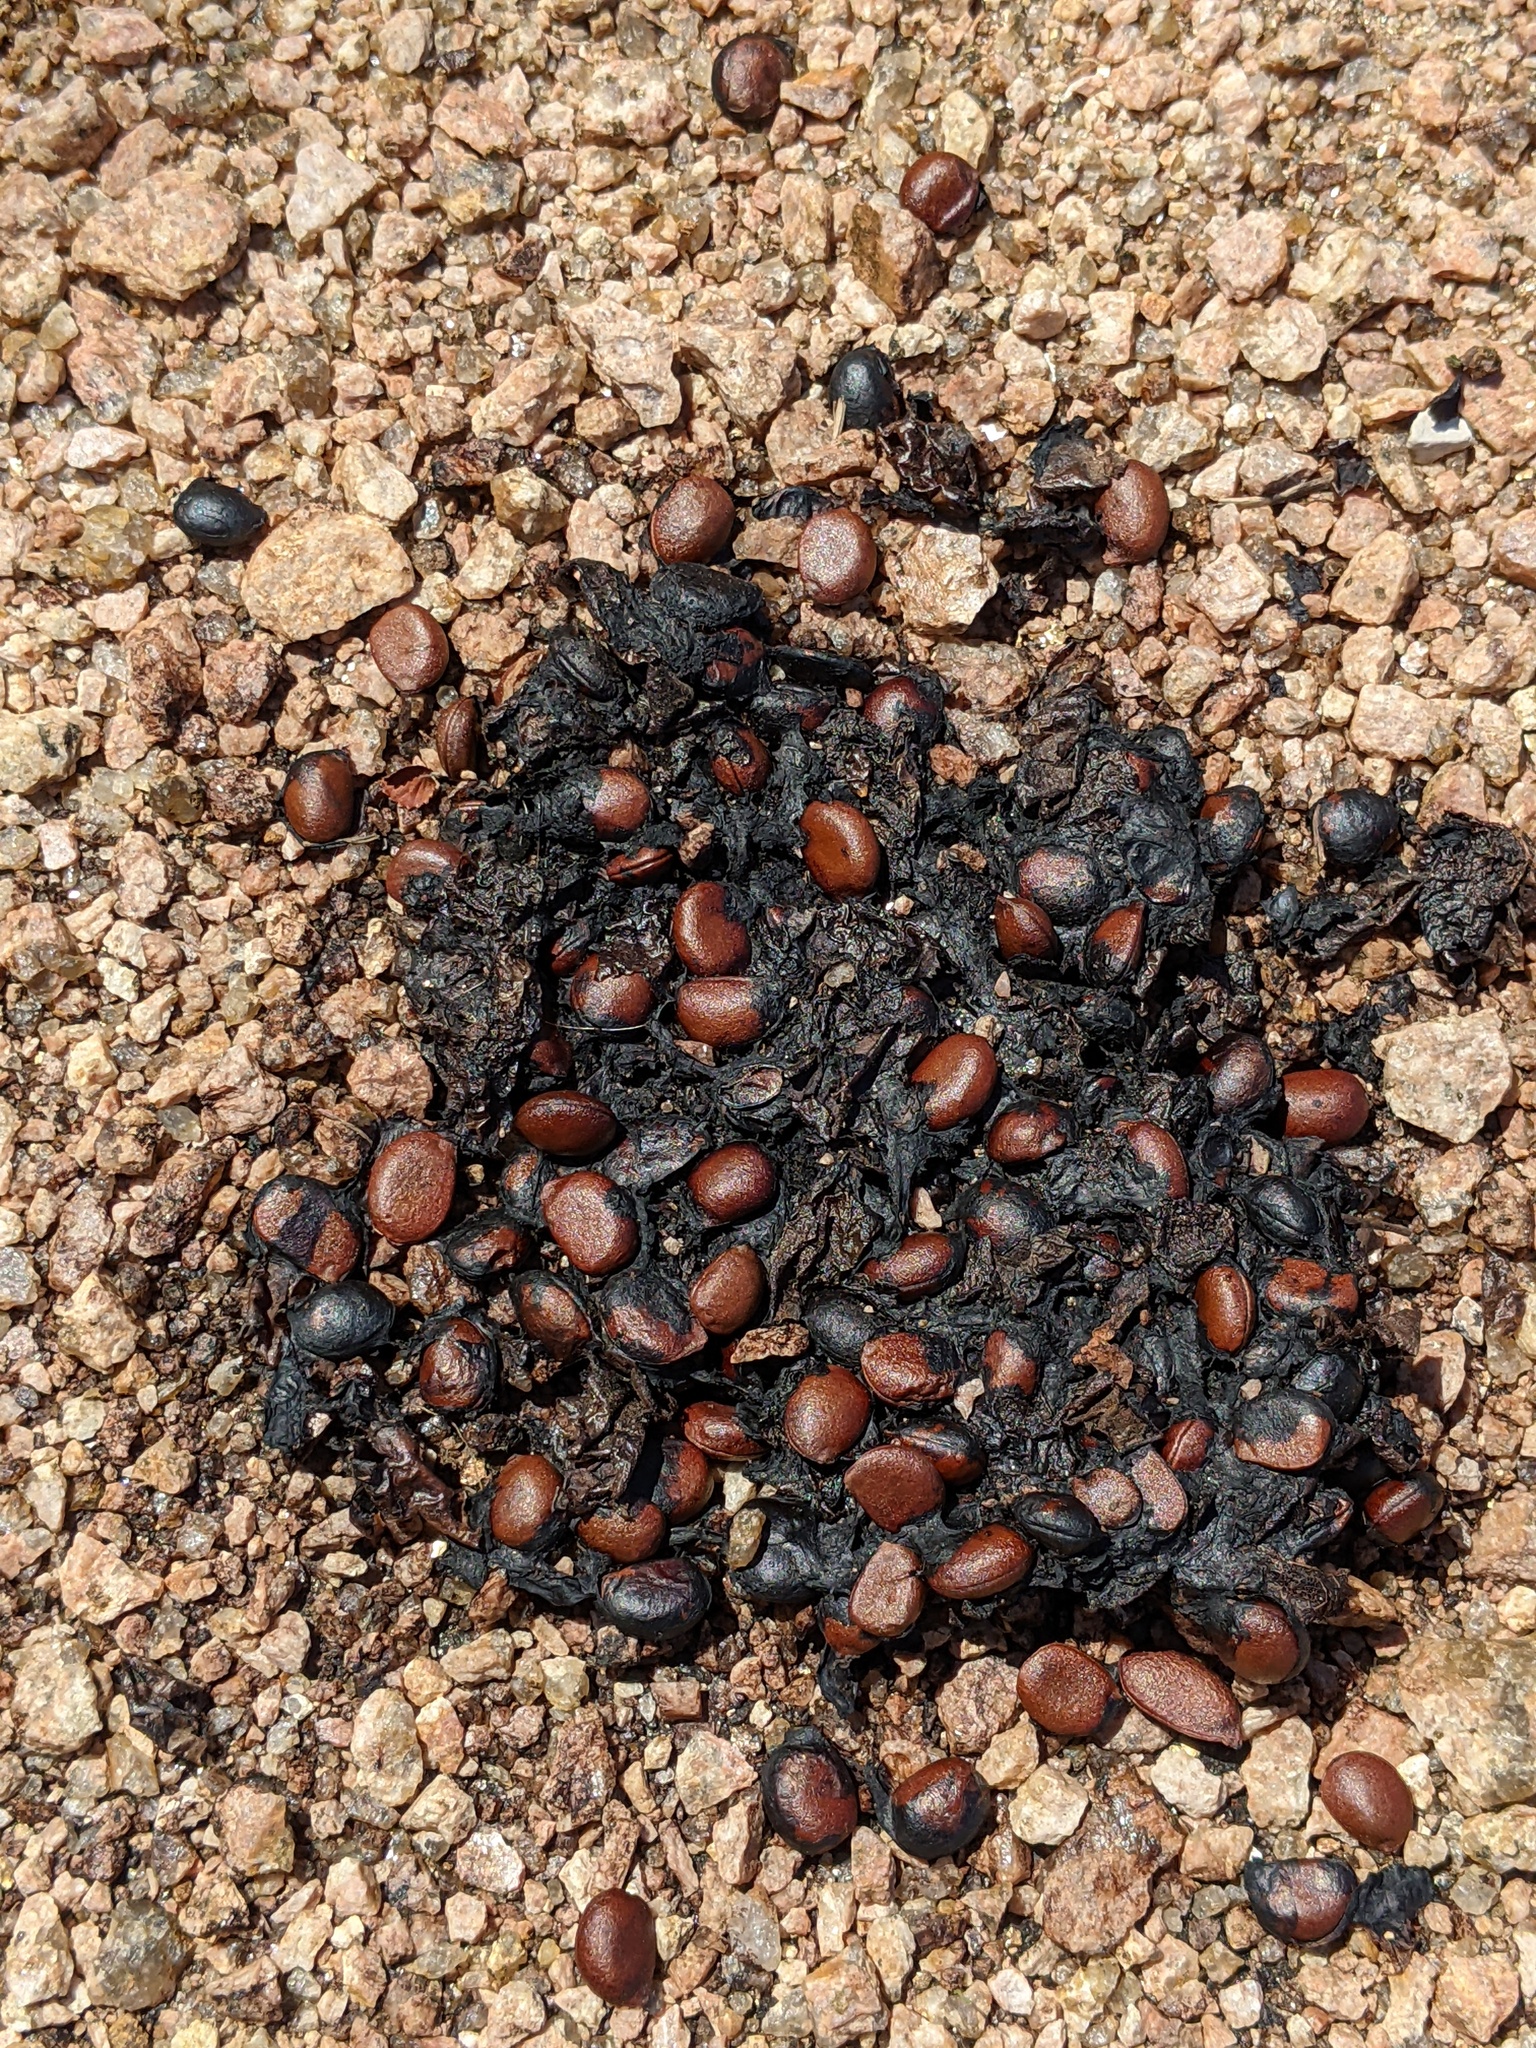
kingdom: Plantae
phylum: Tracheophyta
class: Magnoliopsida
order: Ericales
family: Ebenaceae
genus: Diospyros
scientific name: Diospyros texana
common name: Texas persimmon
